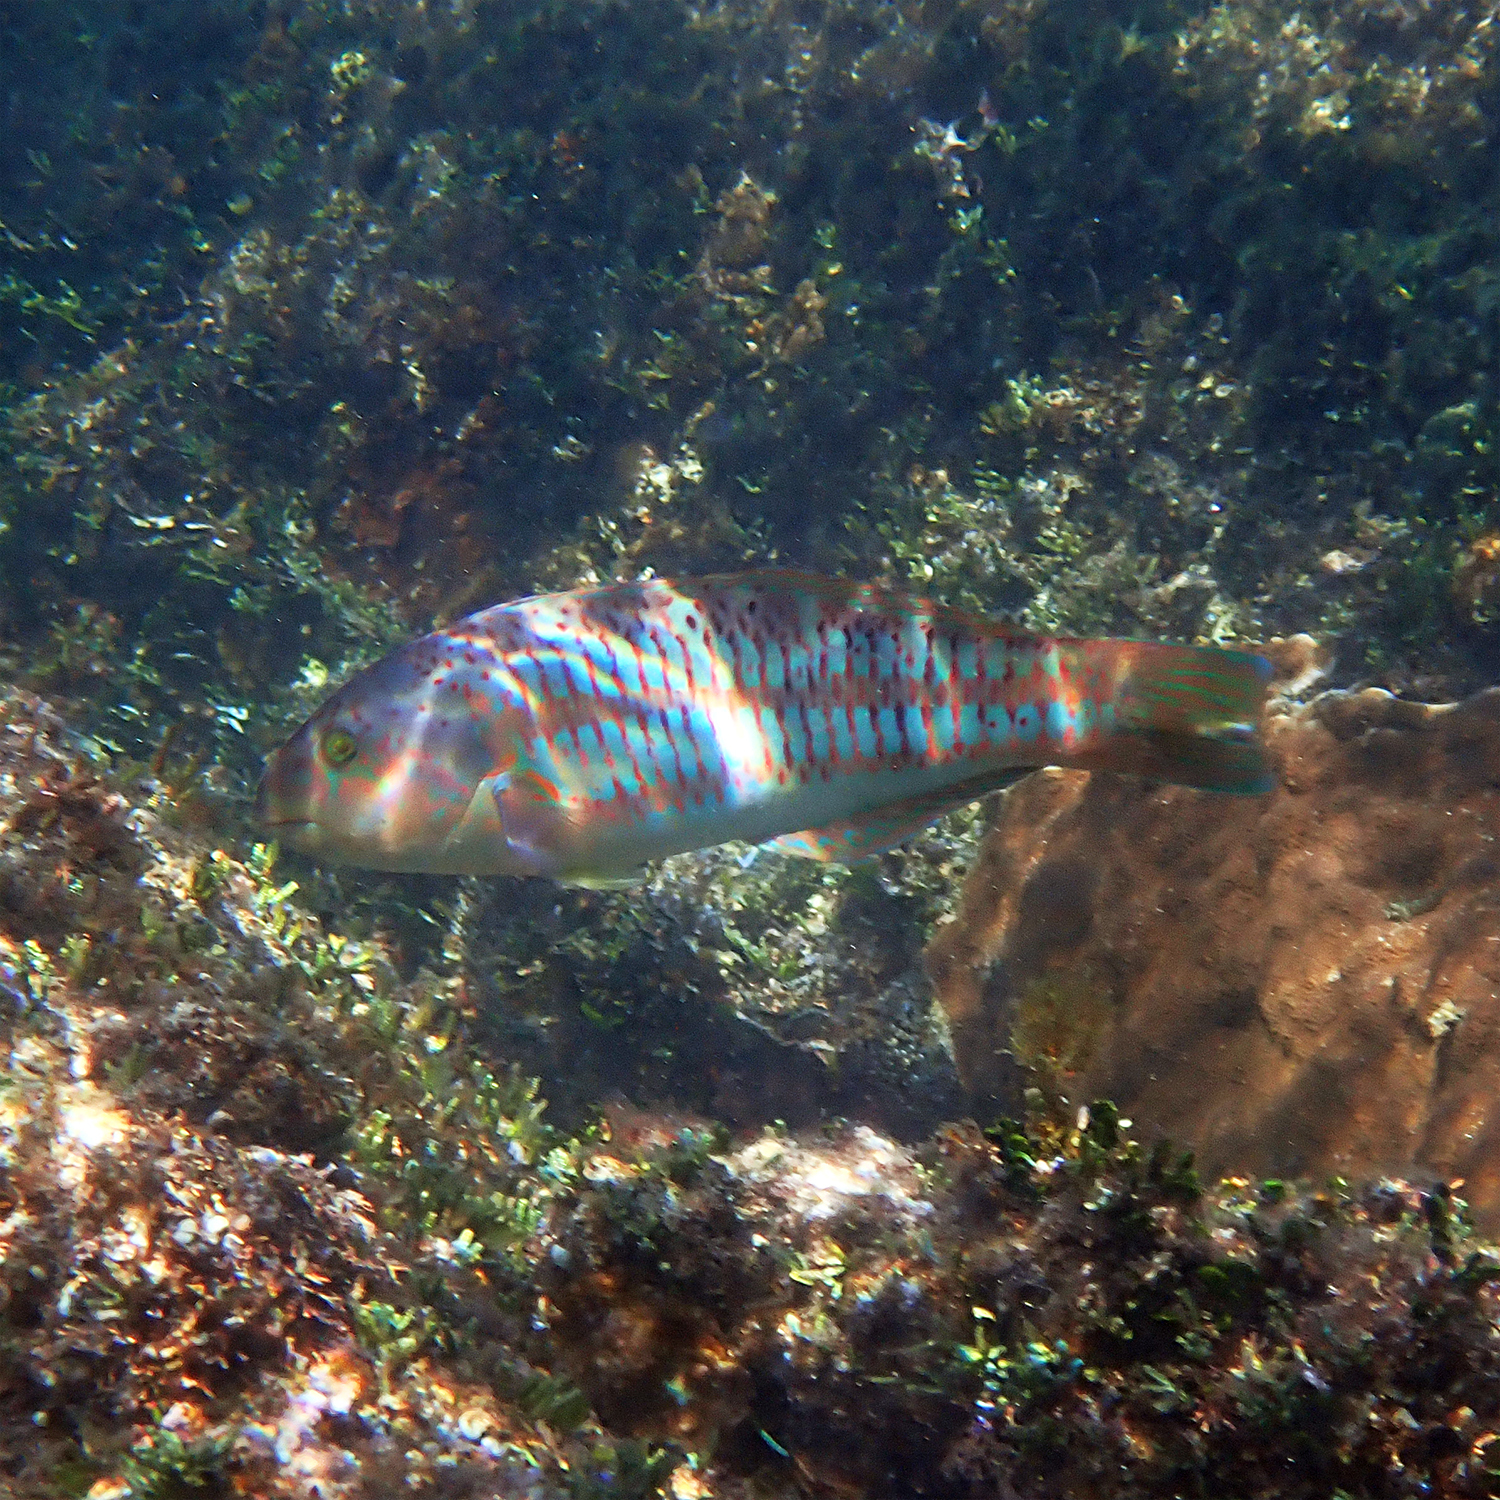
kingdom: Animalia
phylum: Chordata
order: Perciformes
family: Labridae
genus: Thalassoma
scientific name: Thalassoma trilobatum
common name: Christmas wrasse
